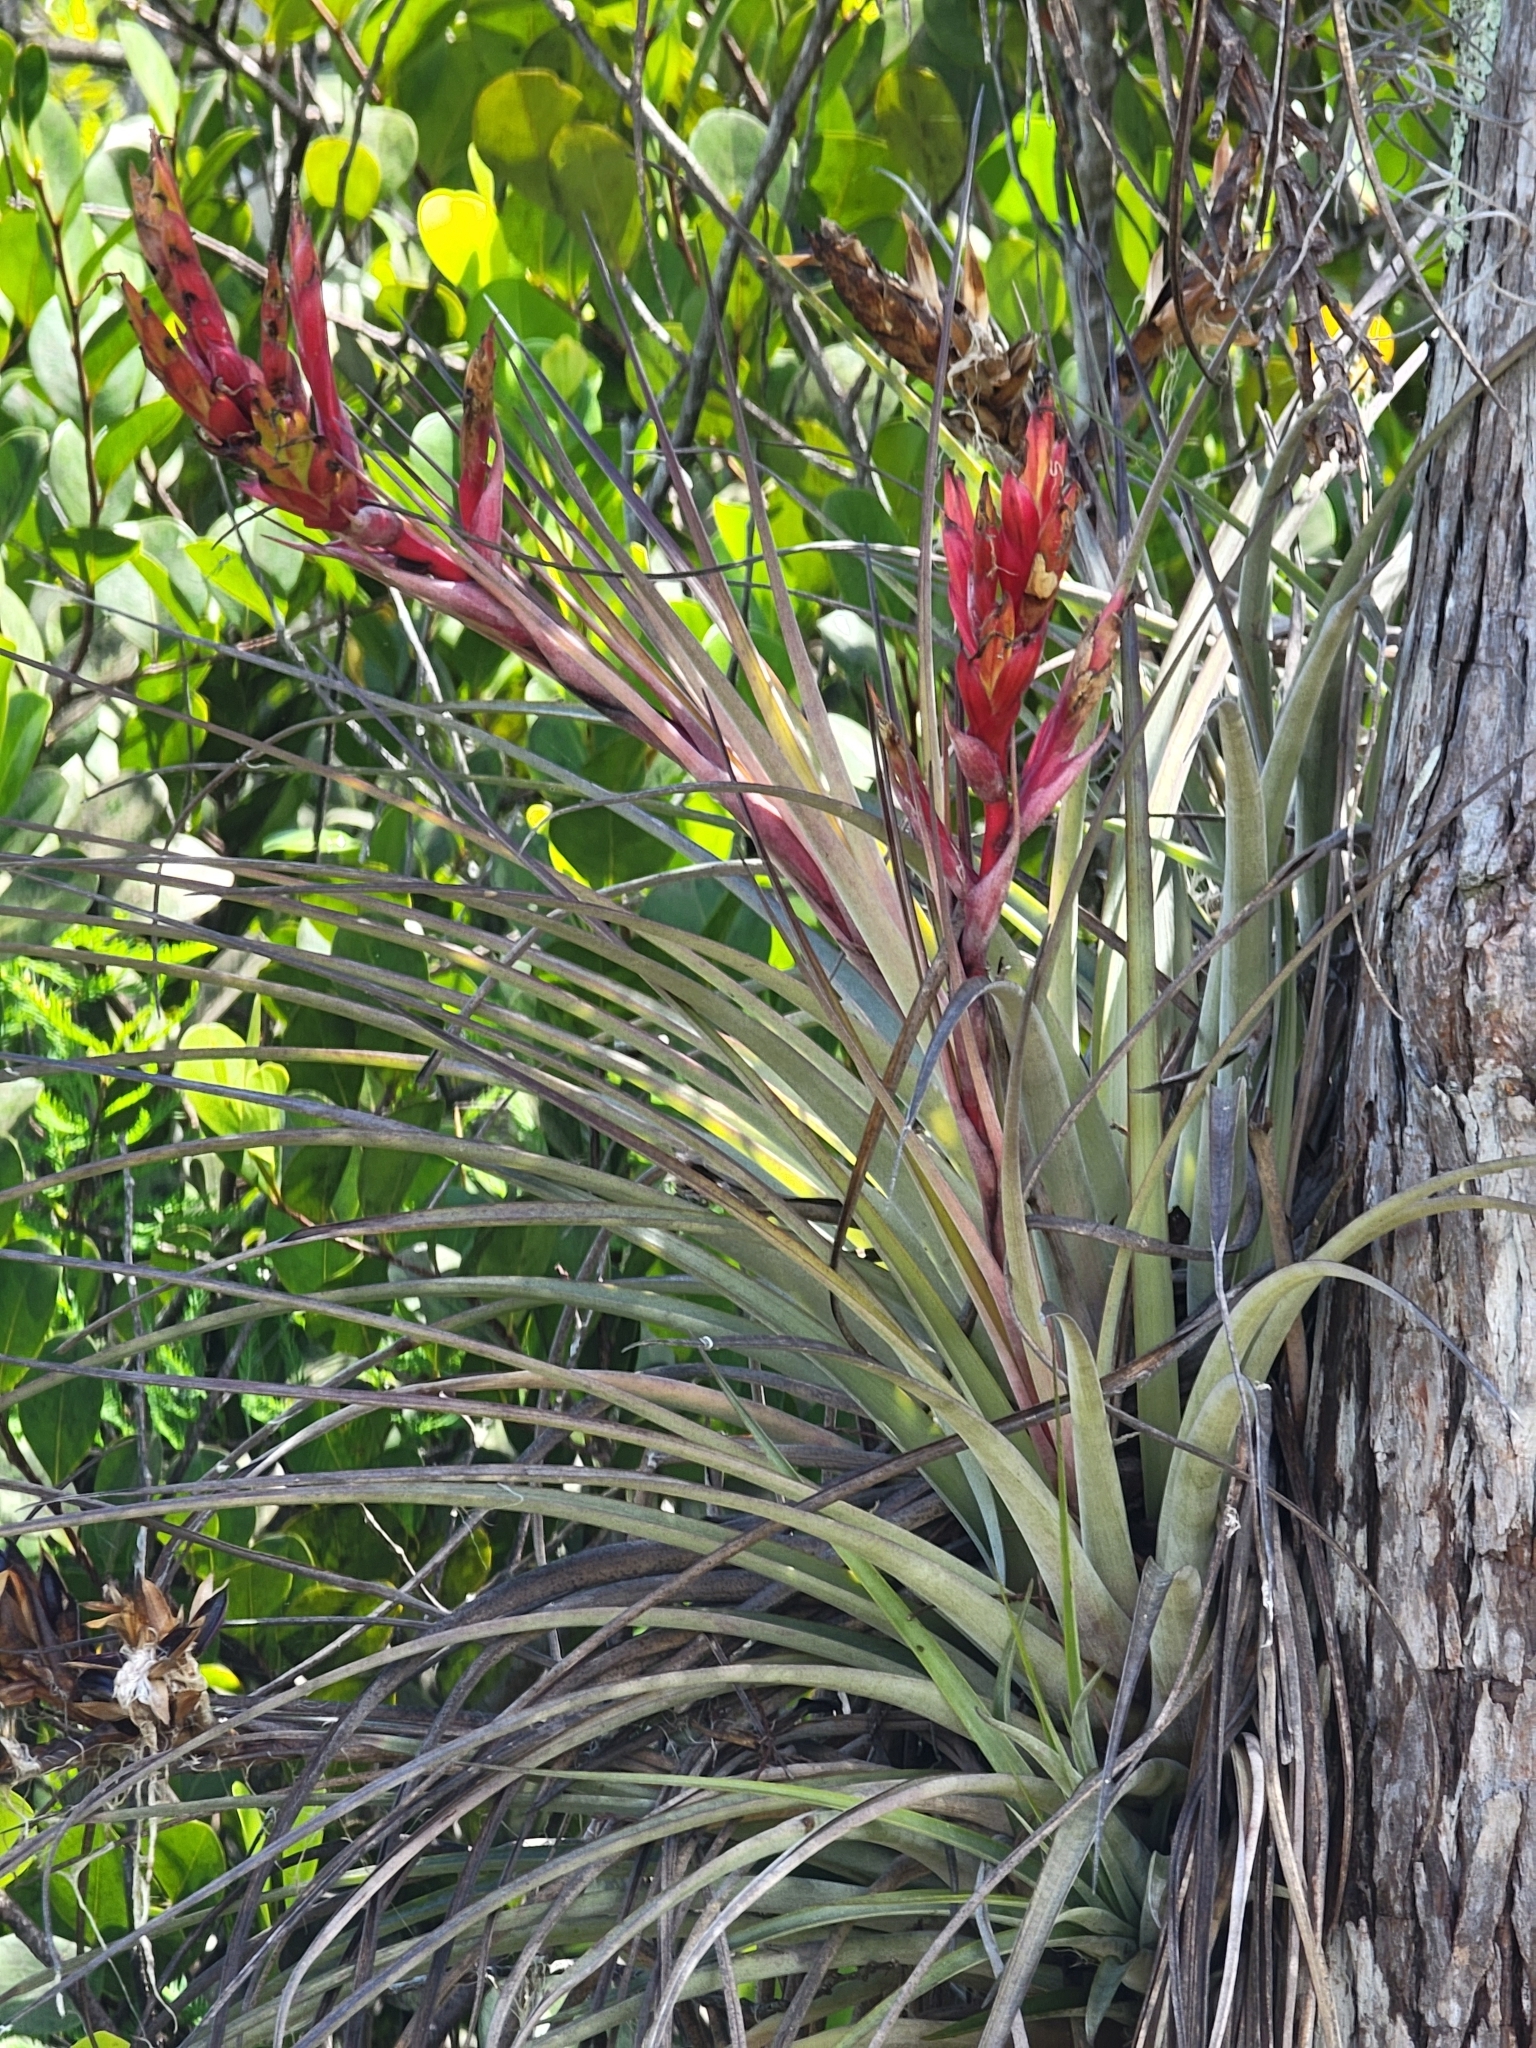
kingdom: Plantae
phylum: Tracheophyta
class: Liliopsida
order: Poales
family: Bromeliaceae
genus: Tillandsia
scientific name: Tillandsia fasciculata
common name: Giant airplant
